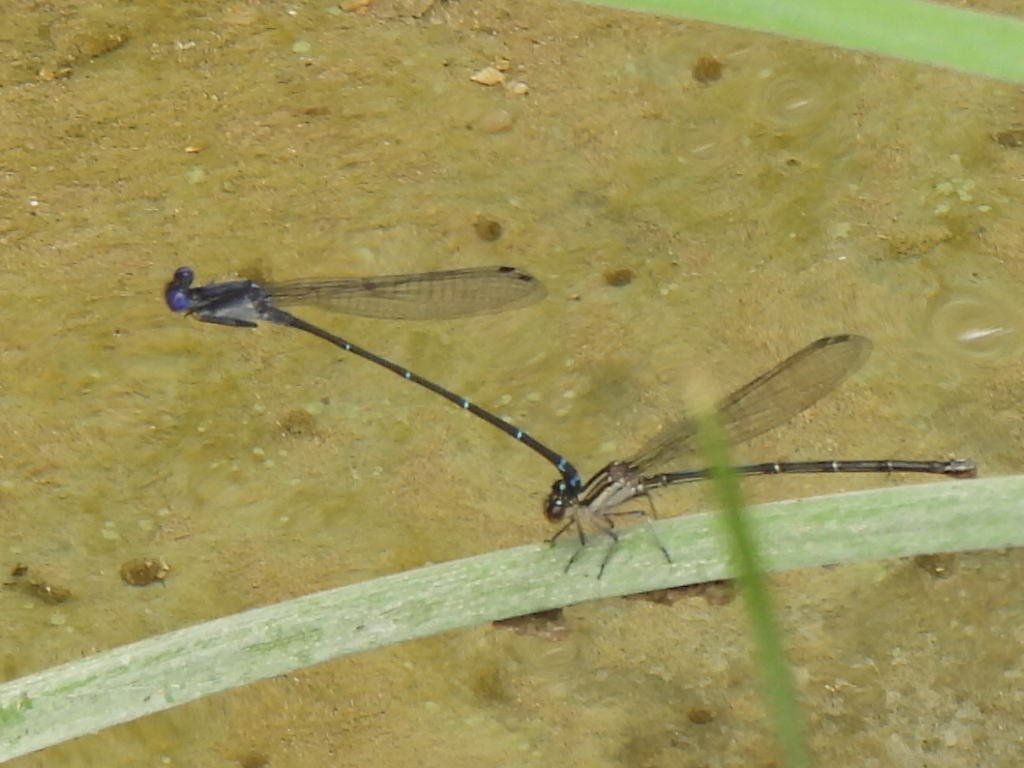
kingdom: Animalia
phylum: Arthropoda
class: Insecta
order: Odonata
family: Coenagrionidae
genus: Argia
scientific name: Argia translata
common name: Dusky dancer
